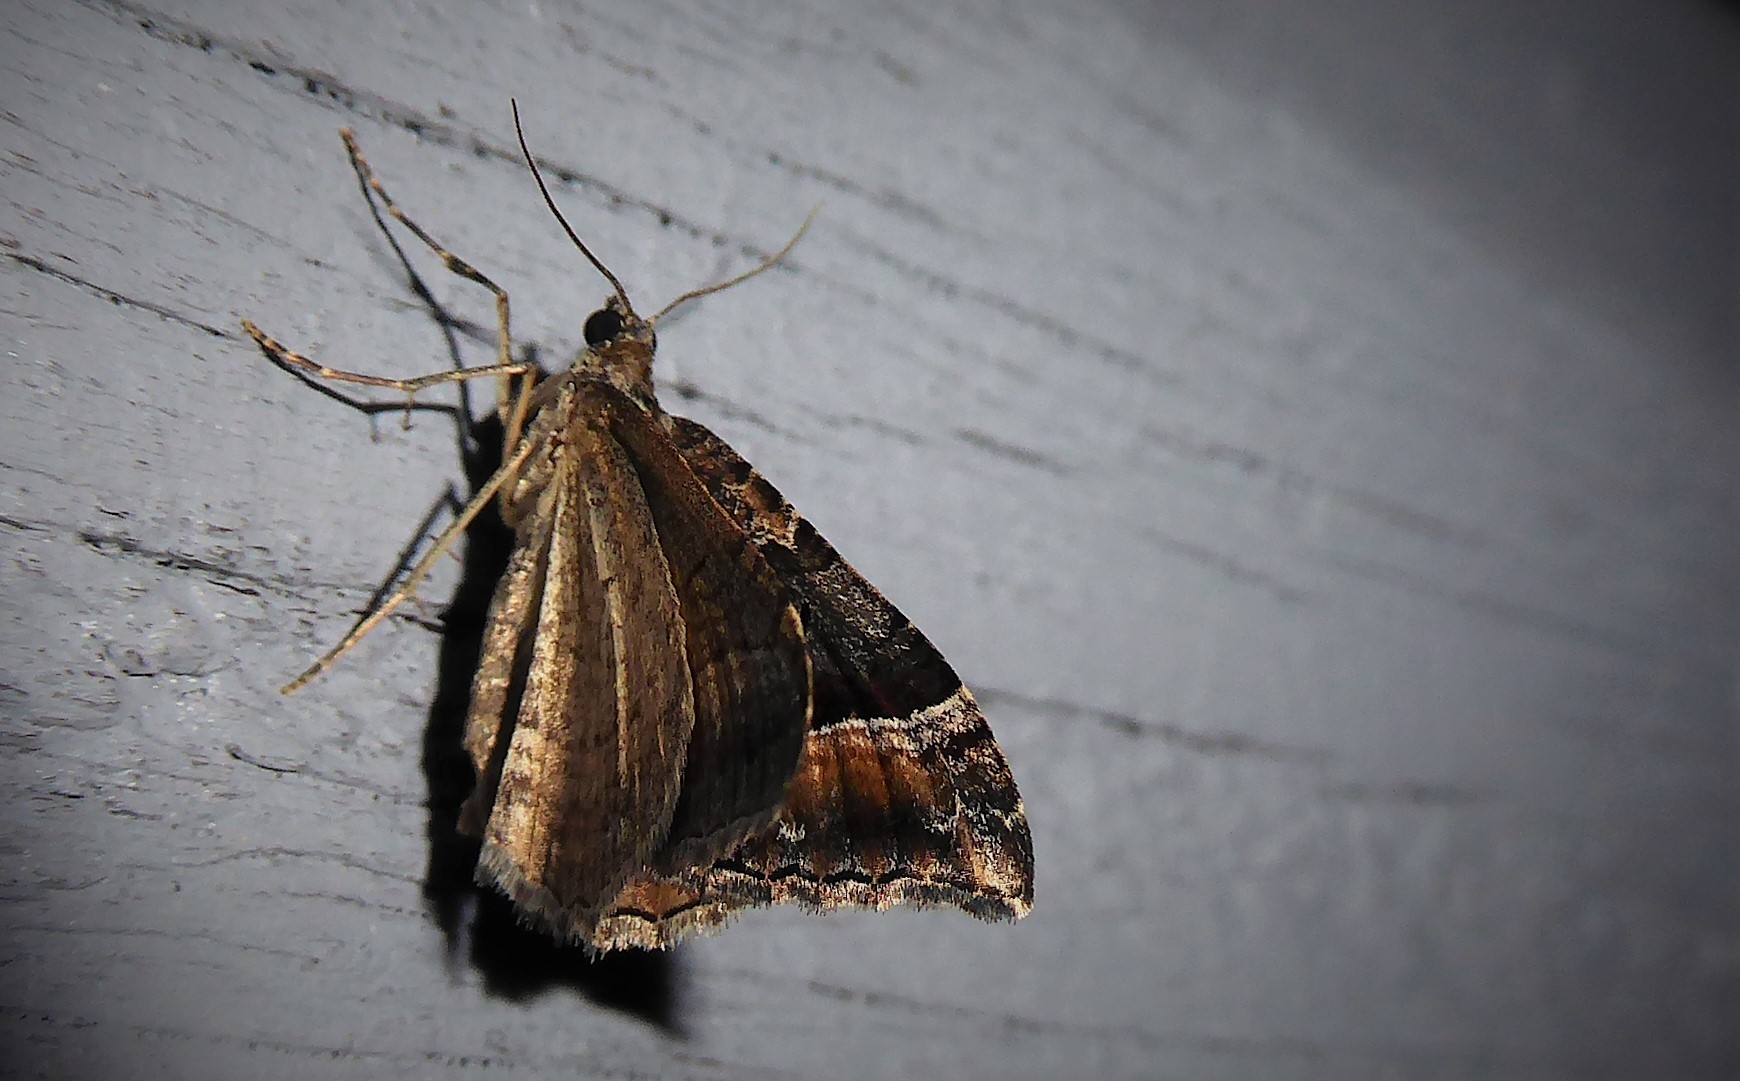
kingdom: Animalia
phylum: Arthropoda
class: Insecta
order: Lepidoptera
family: Geometridae
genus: Hydriomena
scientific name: Hydriomena deltoidata
